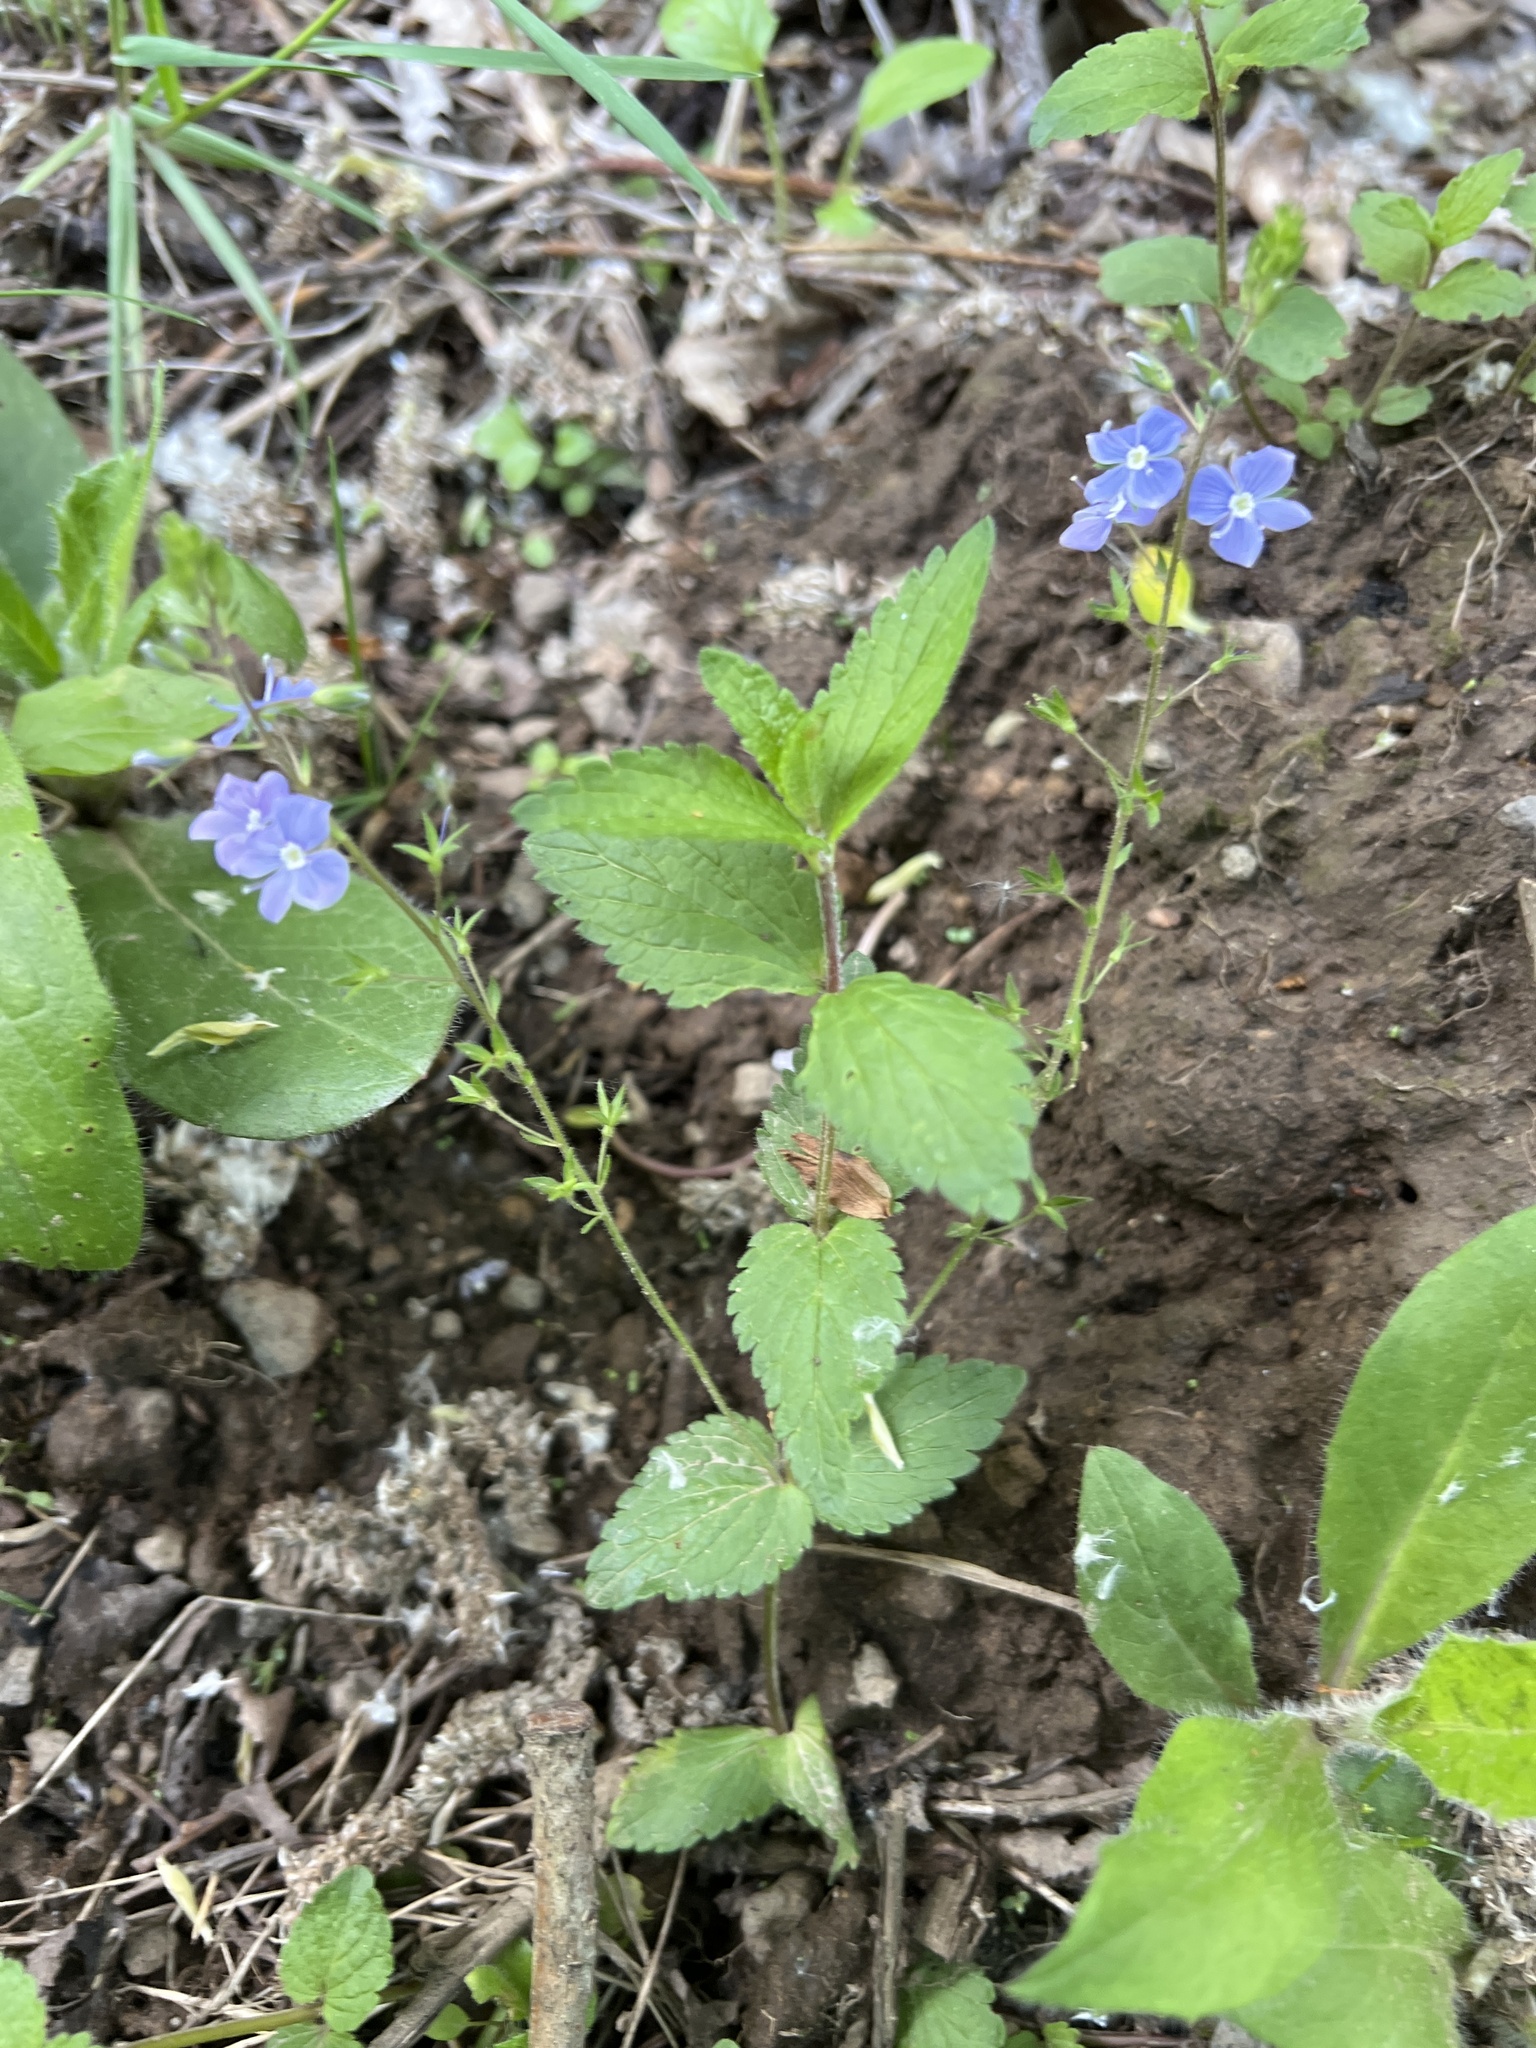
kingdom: Plantae
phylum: Tracheophyta
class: Magnoliopsida
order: Lamiales
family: Plantaginaceae
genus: Veronica
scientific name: Veronica chamaedrys
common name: Germander speedwell
